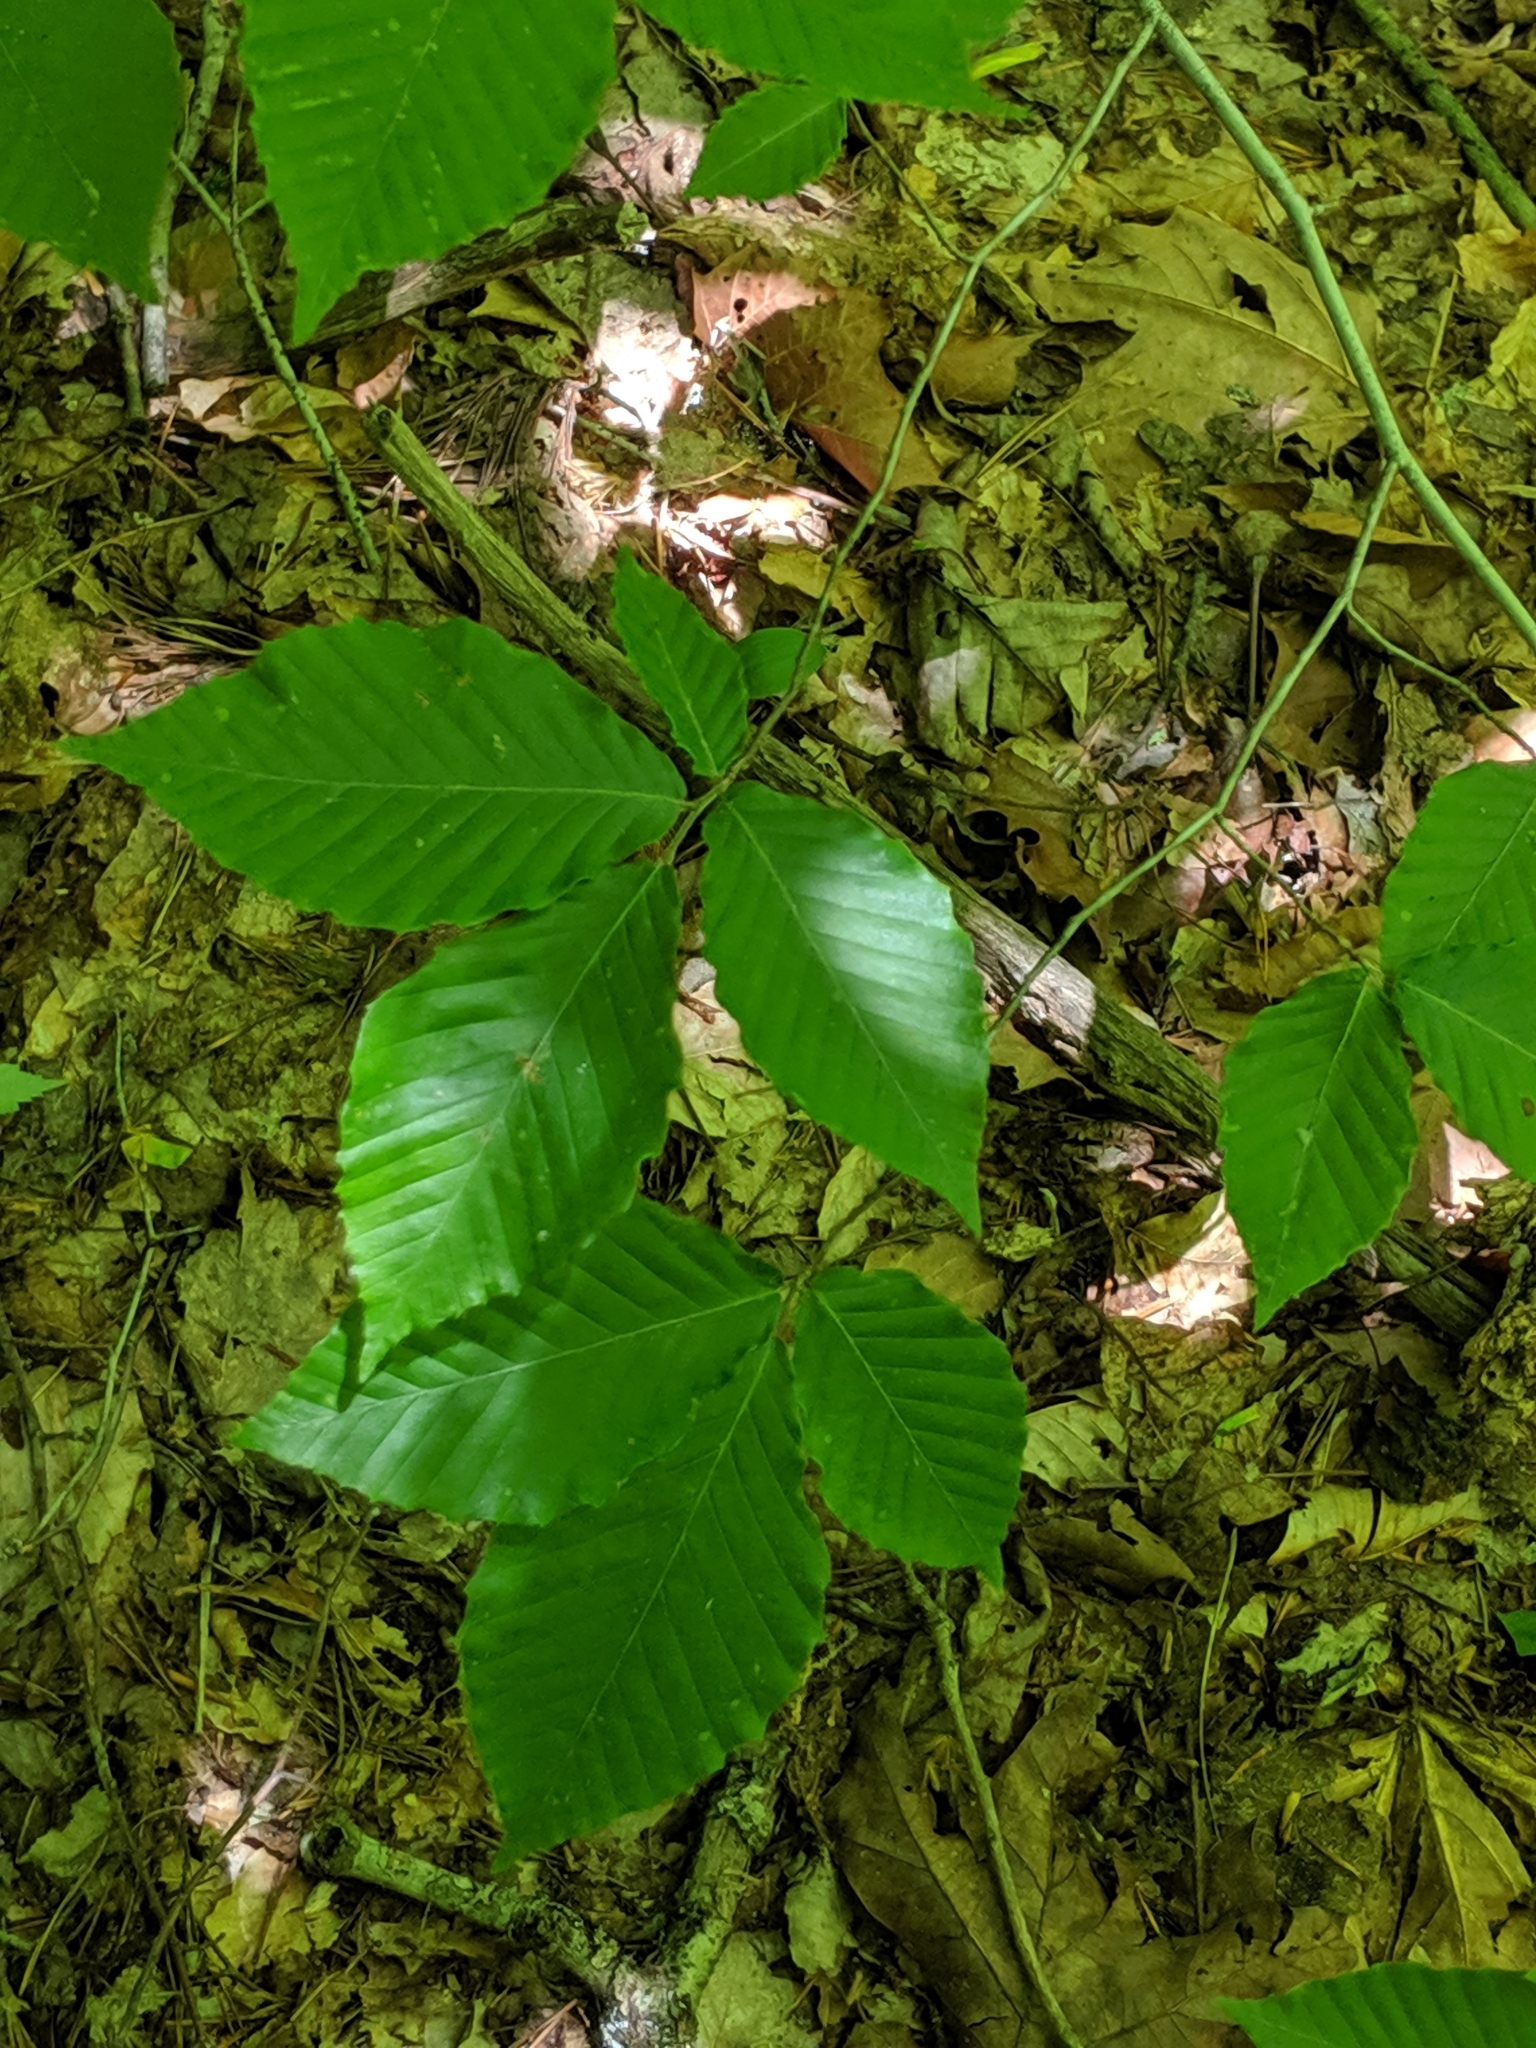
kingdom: Plantae
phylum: Tracheophyta
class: Magnoliopsida
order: Fagales
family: Fagaceae
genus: Fagus
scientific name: Fagus grandifolia
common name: American beech
